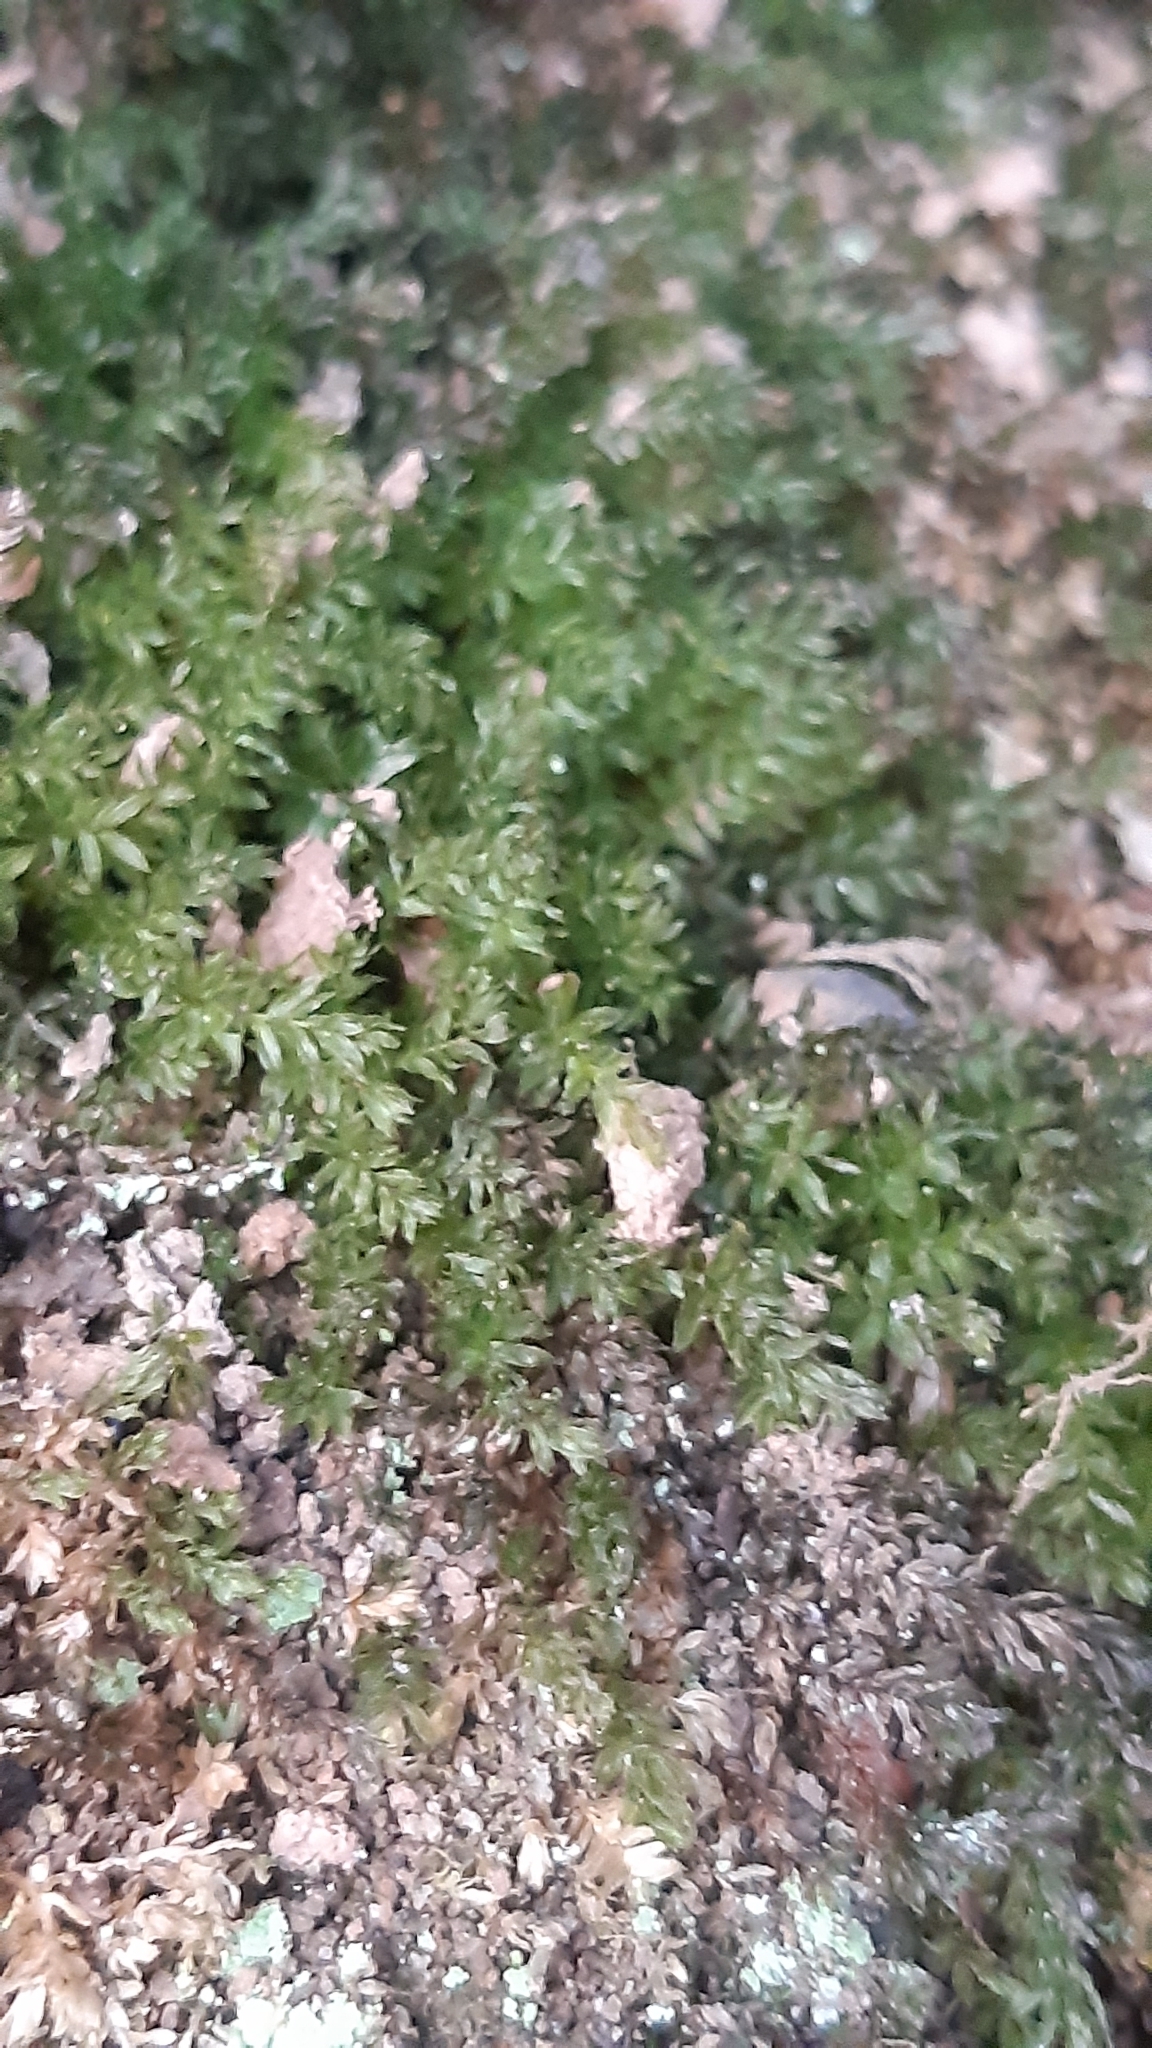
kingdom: Plantae
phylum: Bryophyta
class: Bryopsida
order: Bryales
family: Mniaceae
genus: Plagiomnium
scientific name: Plagiomnium undulatum
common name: Hart's-tongue thyme-moss
